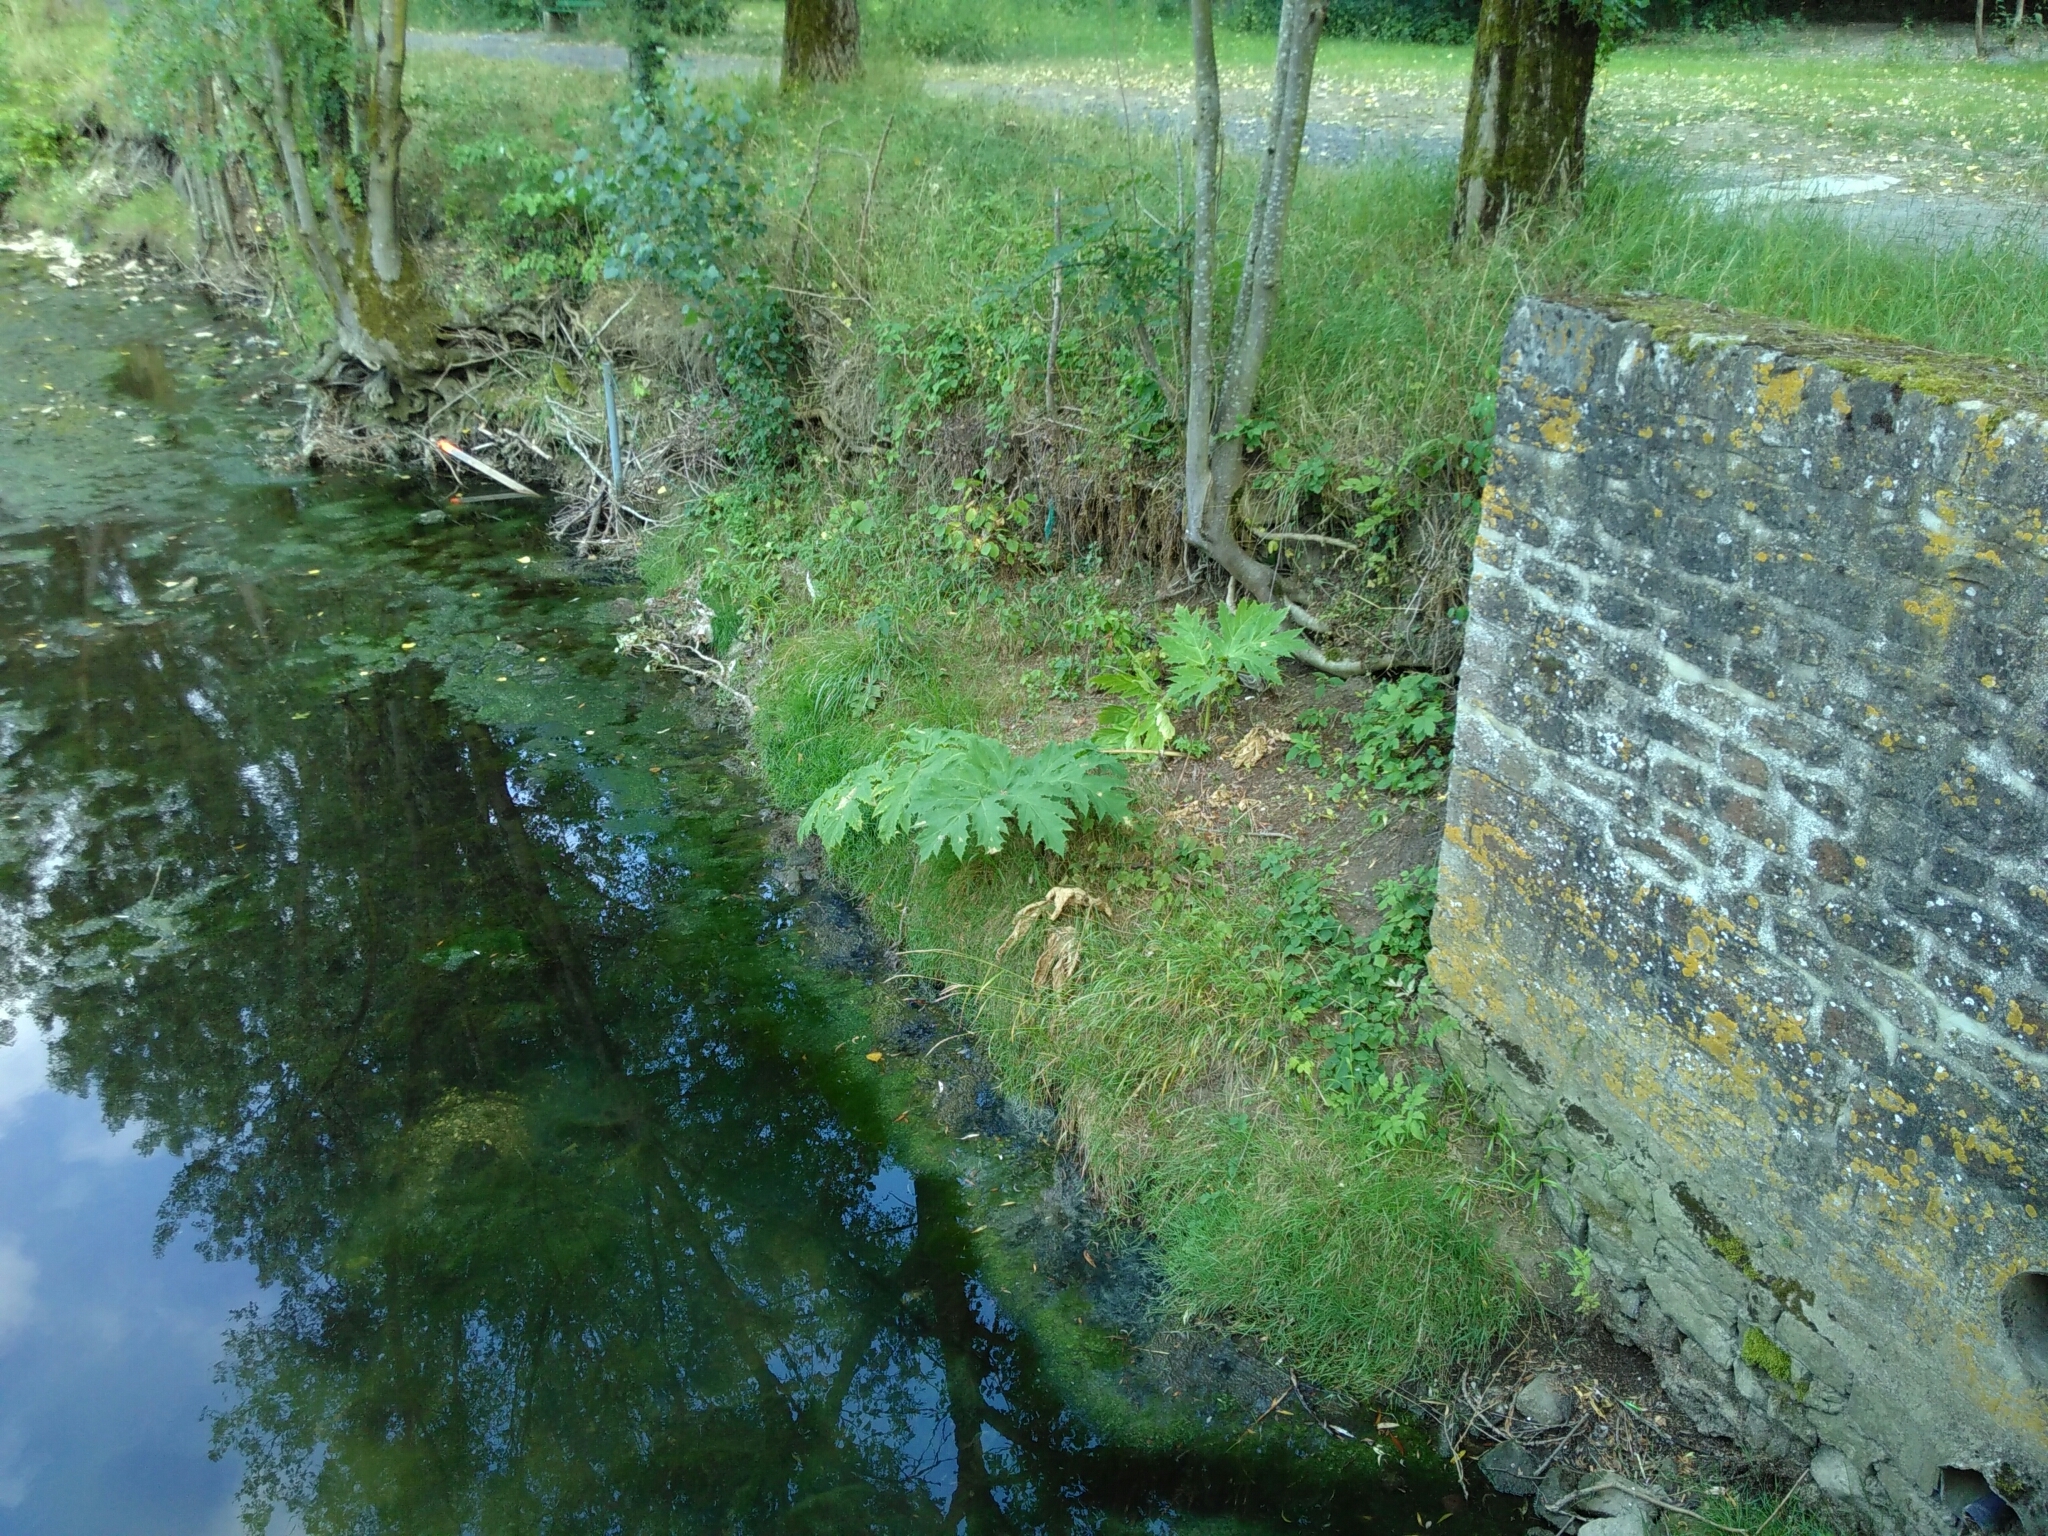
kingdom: Plantae
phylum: Tracheophyta
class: Magnoliopsida
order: Apiales
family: Apiaceae
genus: Heracleum
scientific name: Heracleum mantegazzianum
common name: Giant hogweed
